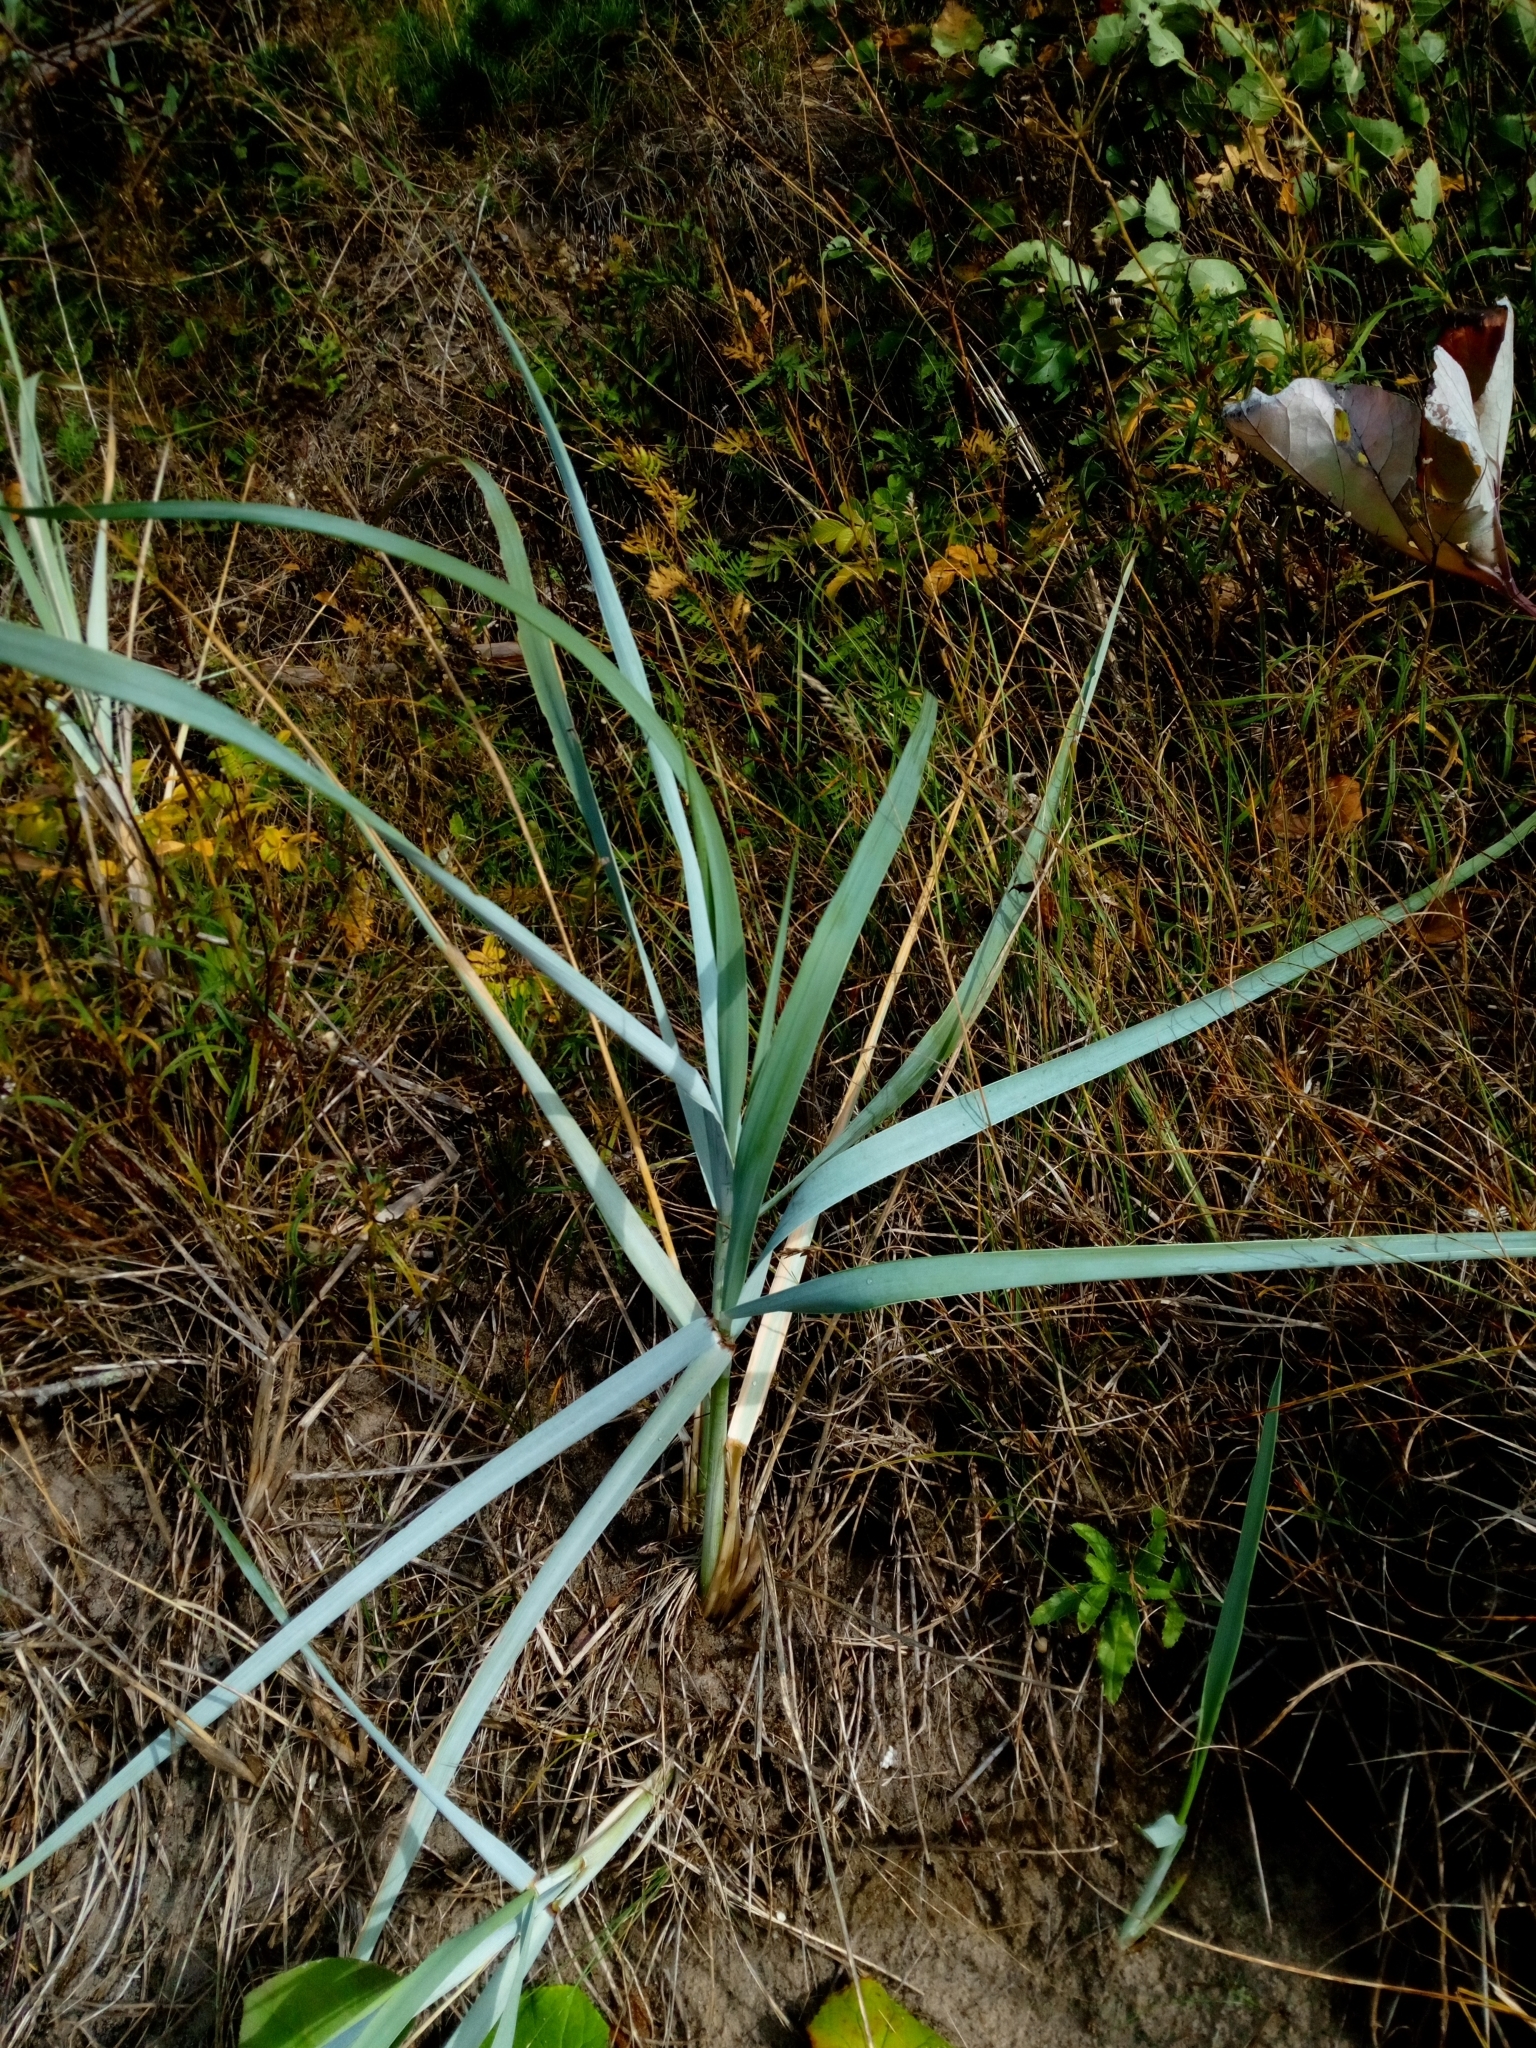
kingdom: Plantae
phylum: Tracheophyta
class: Liliopsida
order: Poales
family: Poaceae
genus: Leymus
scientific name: Leymus arenarius
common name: Lyme-grass
